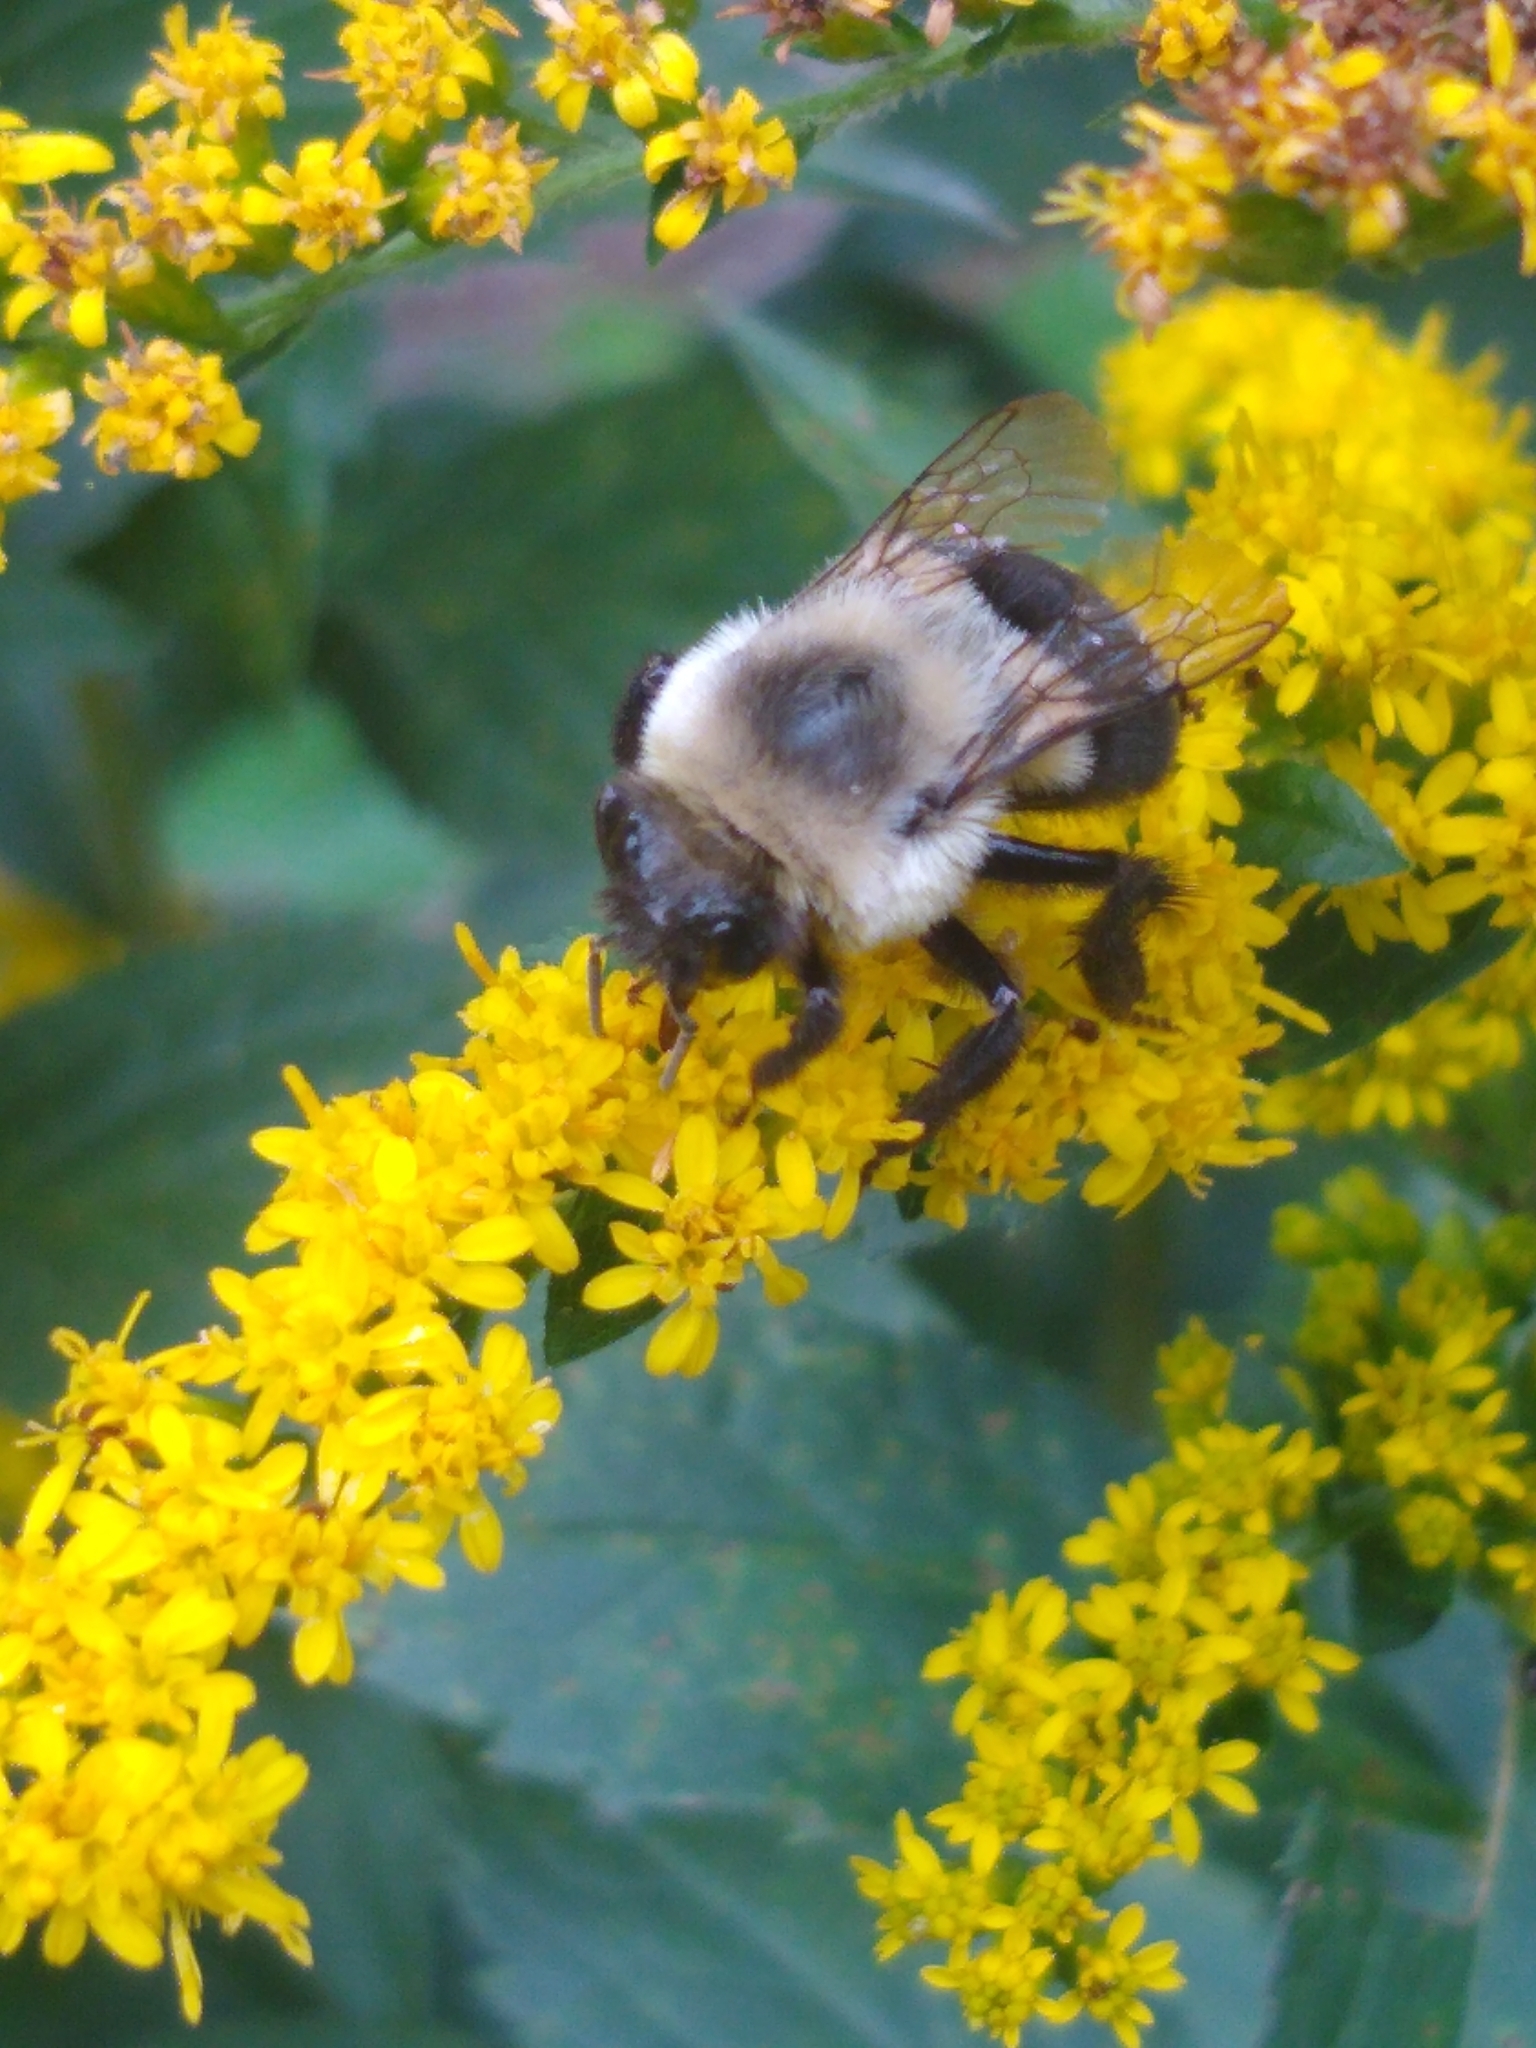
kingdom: Animalia
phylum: Arthropoda
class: Insecta
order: Hymenoptera
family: Apidae
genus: Bombus
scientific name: Bombus impatiens
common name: Common eastern bumble bee
